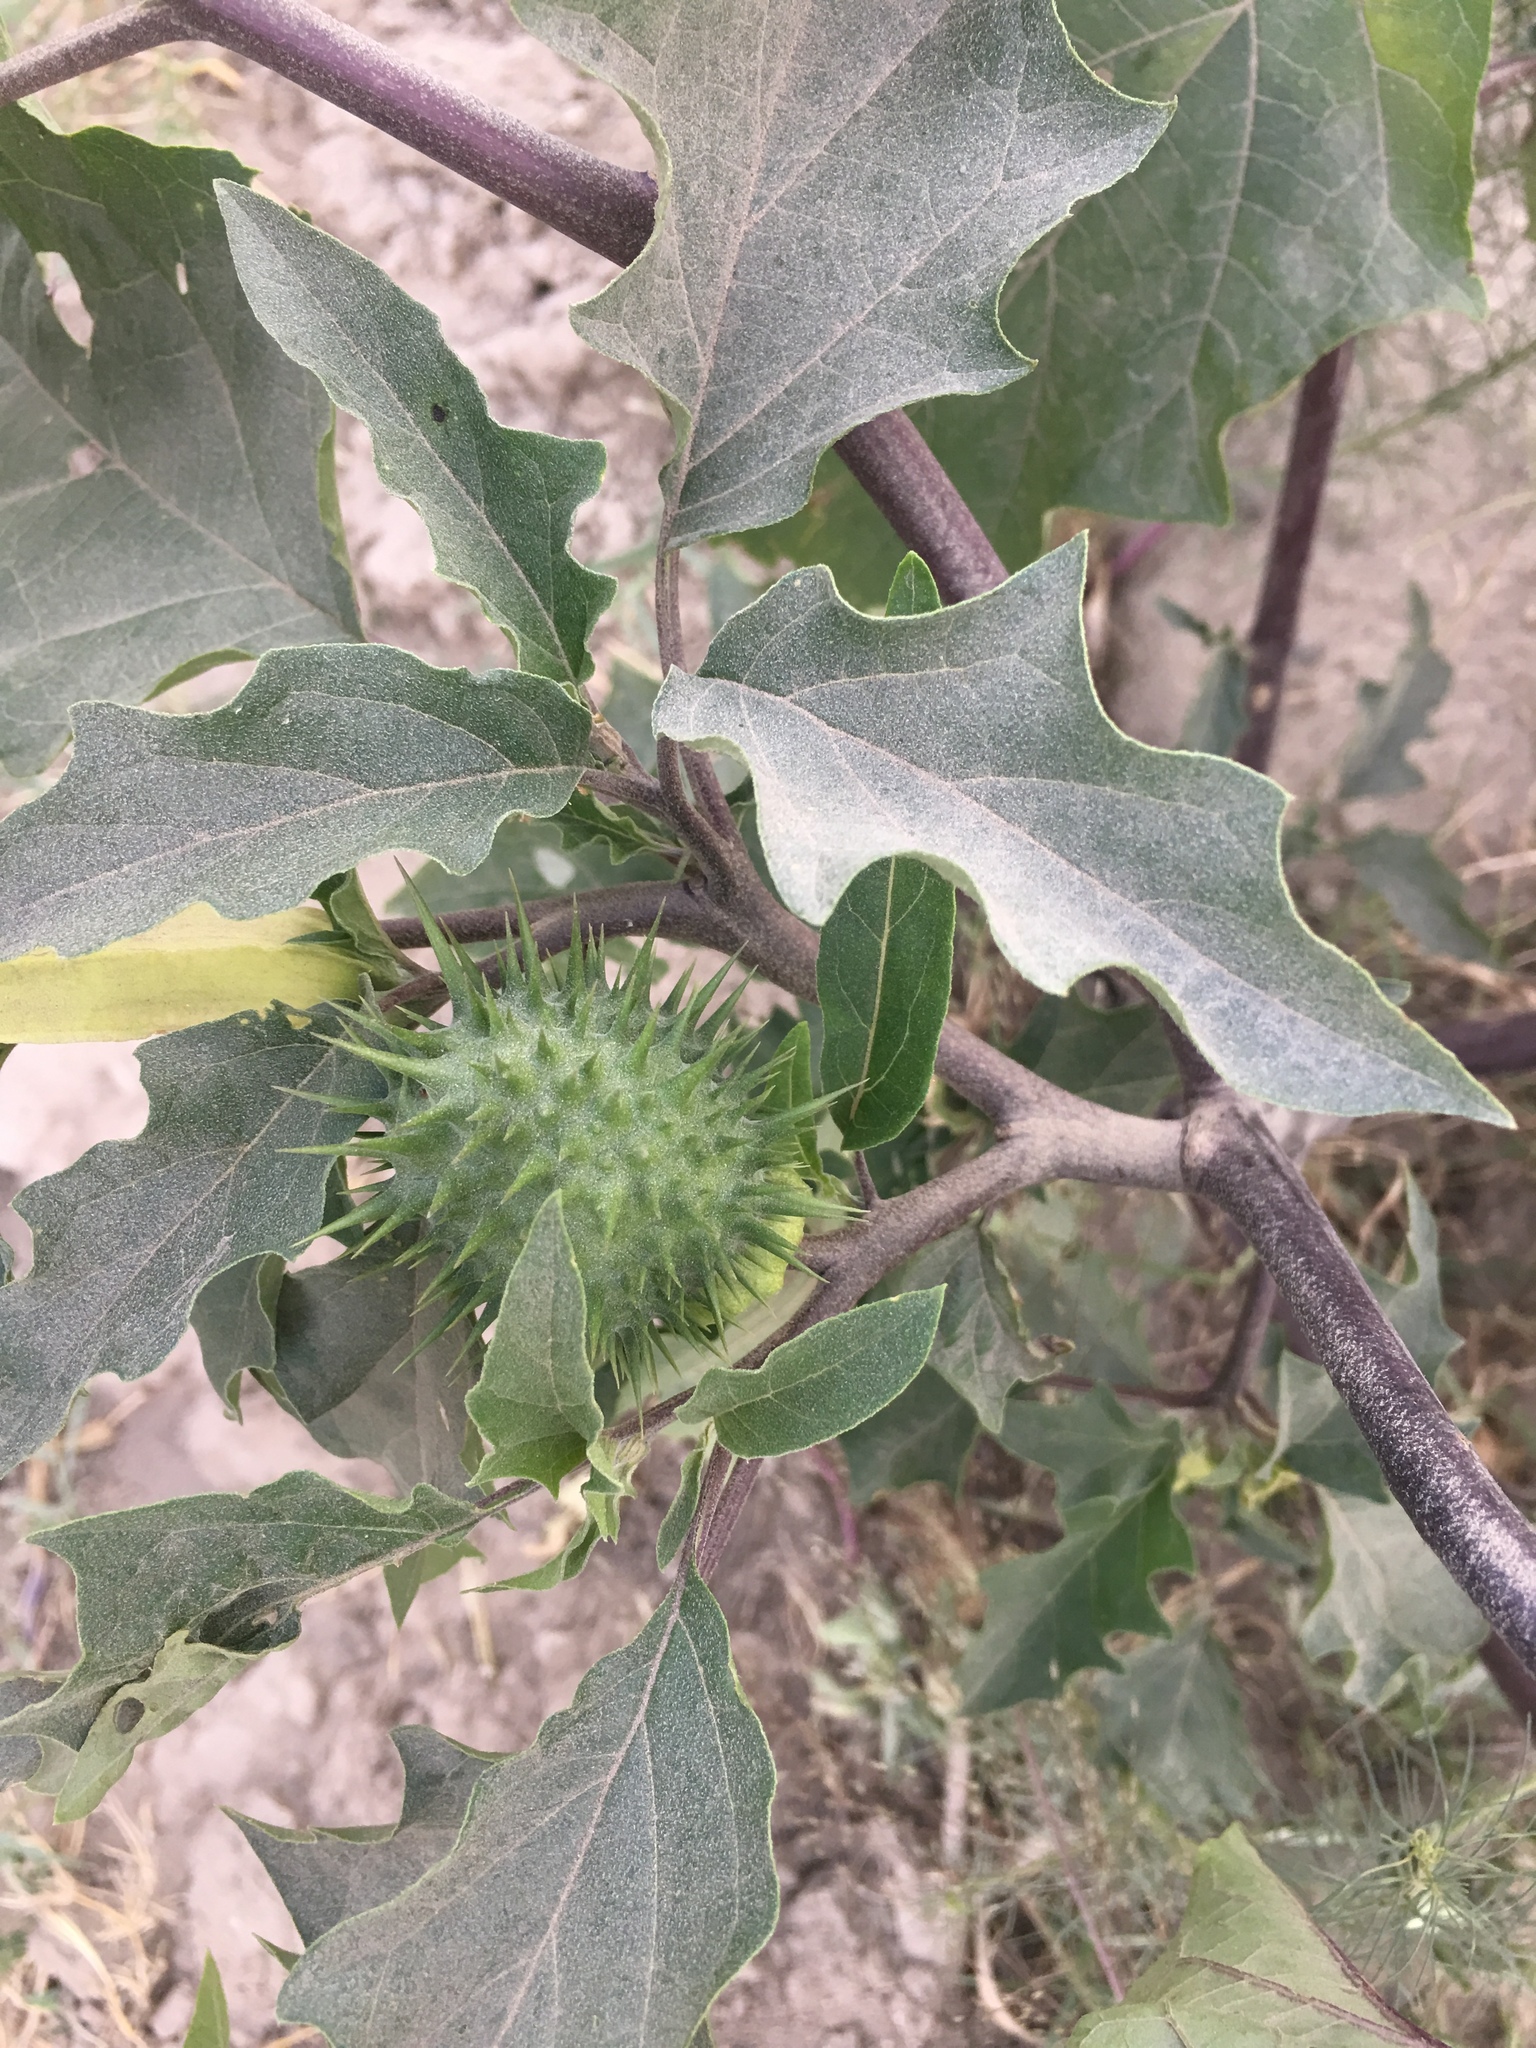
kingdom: Plantae
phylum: Tracheophyta
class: Magnoliopsida
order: Solanales
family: Solanaceae
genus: Datura
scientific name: Datura stramonium
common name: Thorn-apple
